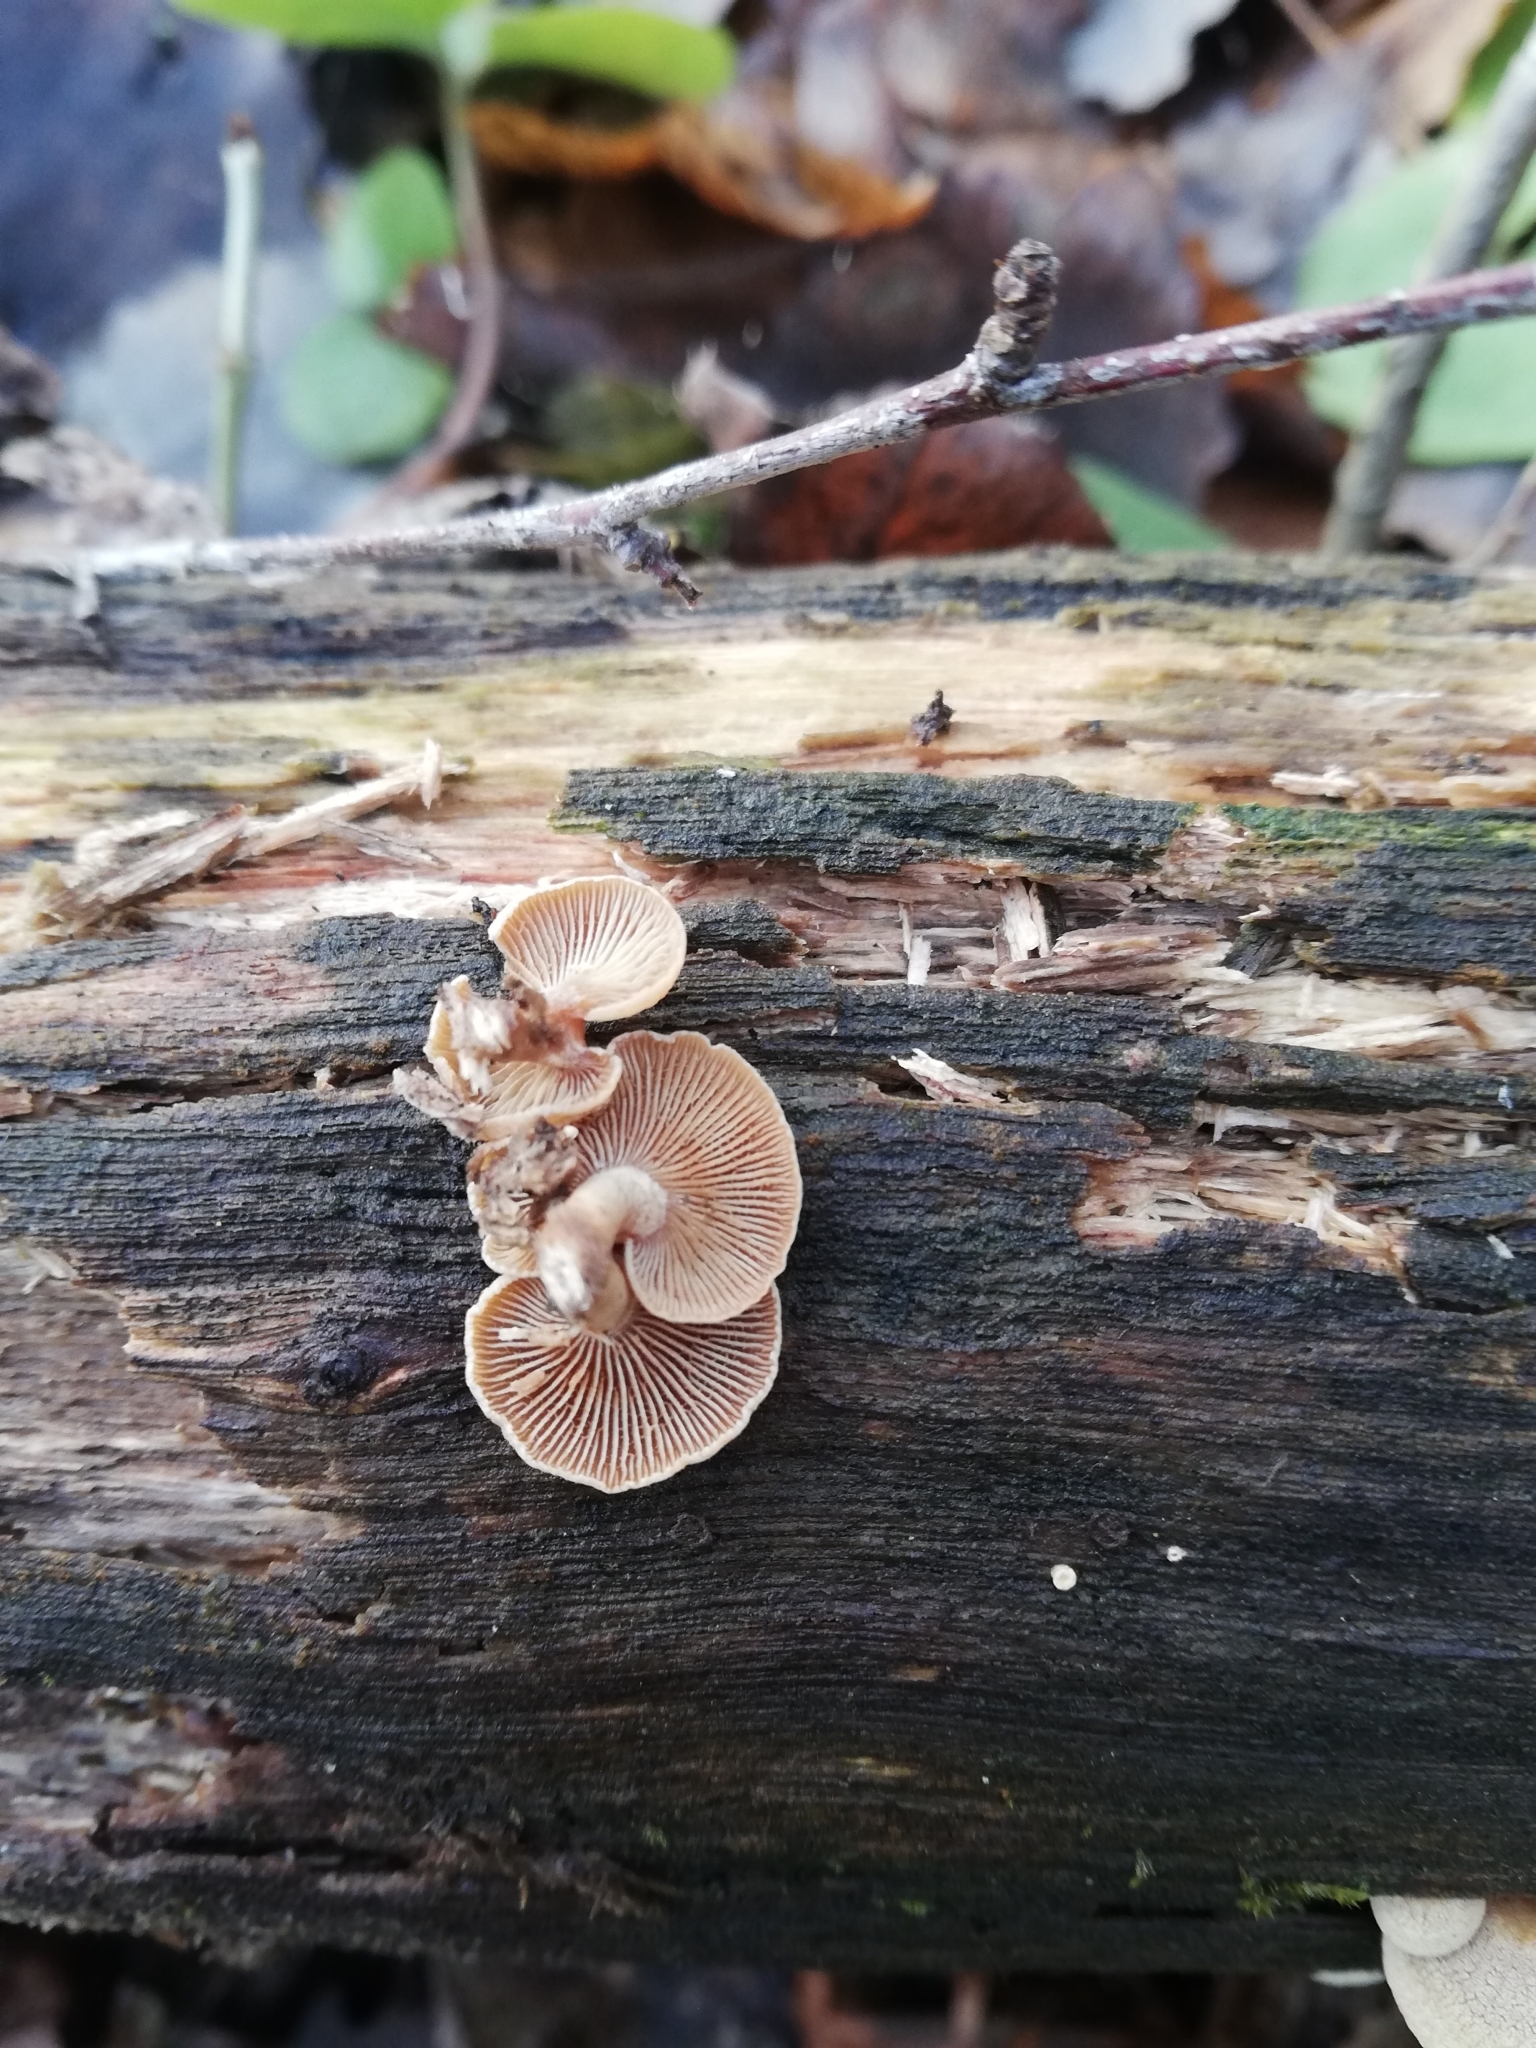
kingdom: Fungi
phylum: Basidiomycota
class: Agaricomycetes
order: Agaricales
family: Mycenaceae
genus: Panellus
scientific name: Panellus stipticus
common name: Bitter oysterling
